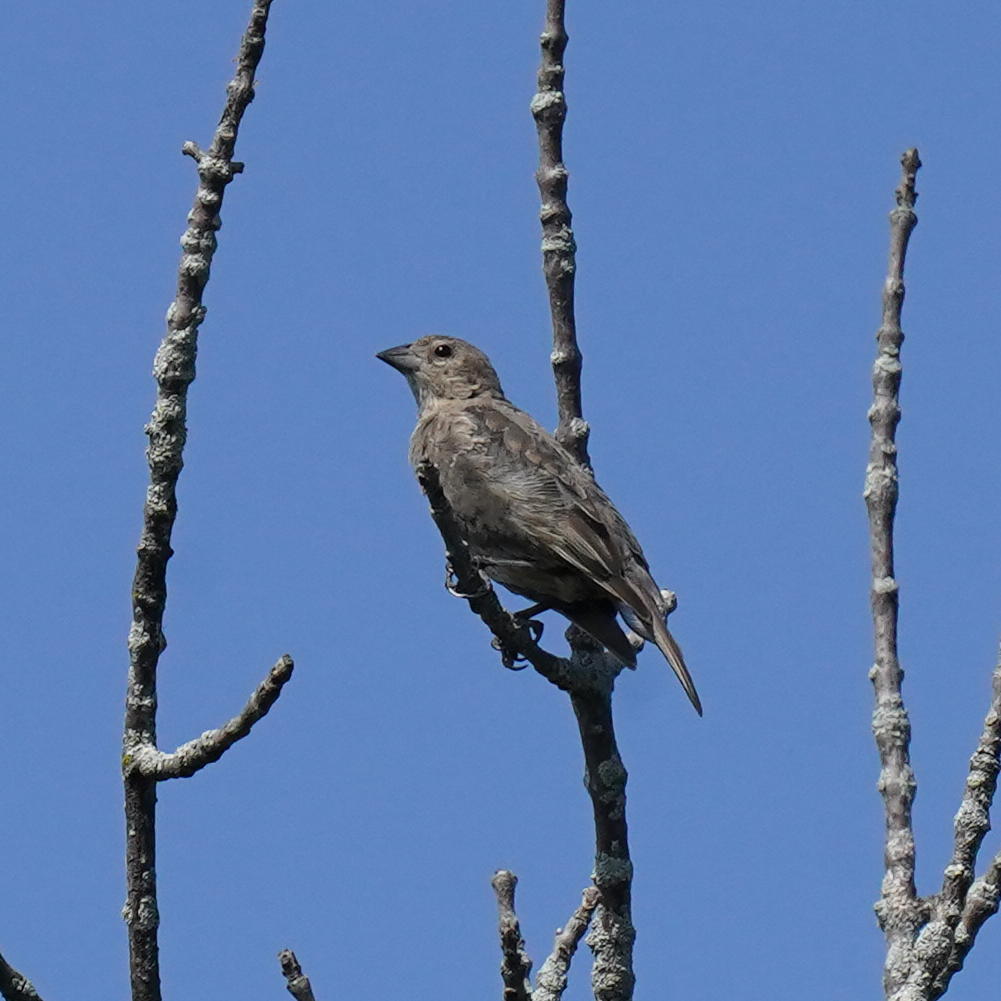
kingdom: Animalia
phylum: Chordata
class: Aves
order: Passeriformes
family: Icteridae
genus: Molothrus
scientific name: Molothrus ater
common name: Brown-headed cowbird
